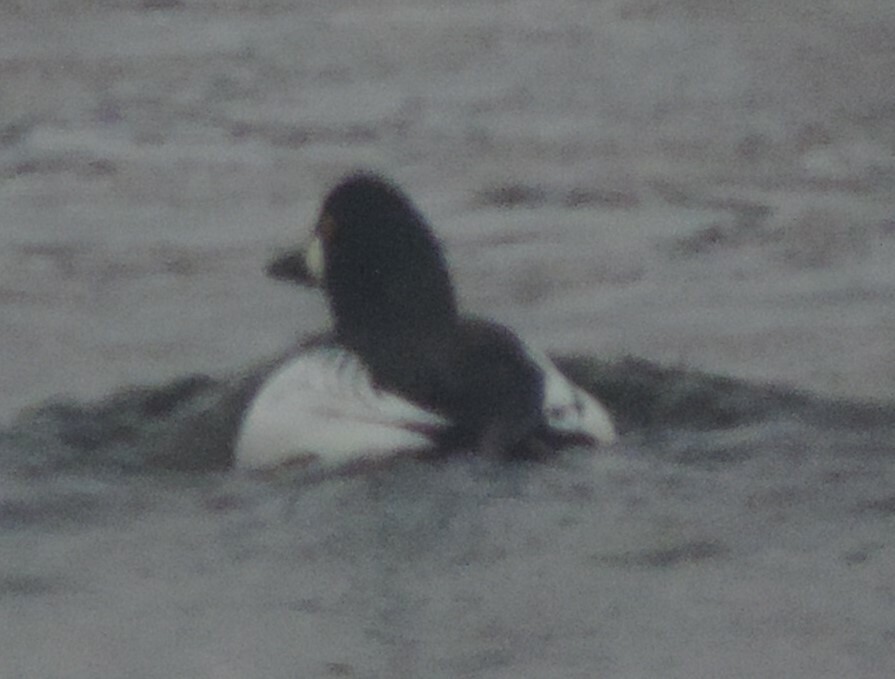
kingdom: Animalia
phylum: Chordata
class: Aves
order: Anseriformes
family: Anatidae
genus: Bucephala
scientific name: Bucephala clangula
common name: Common goldeneye
